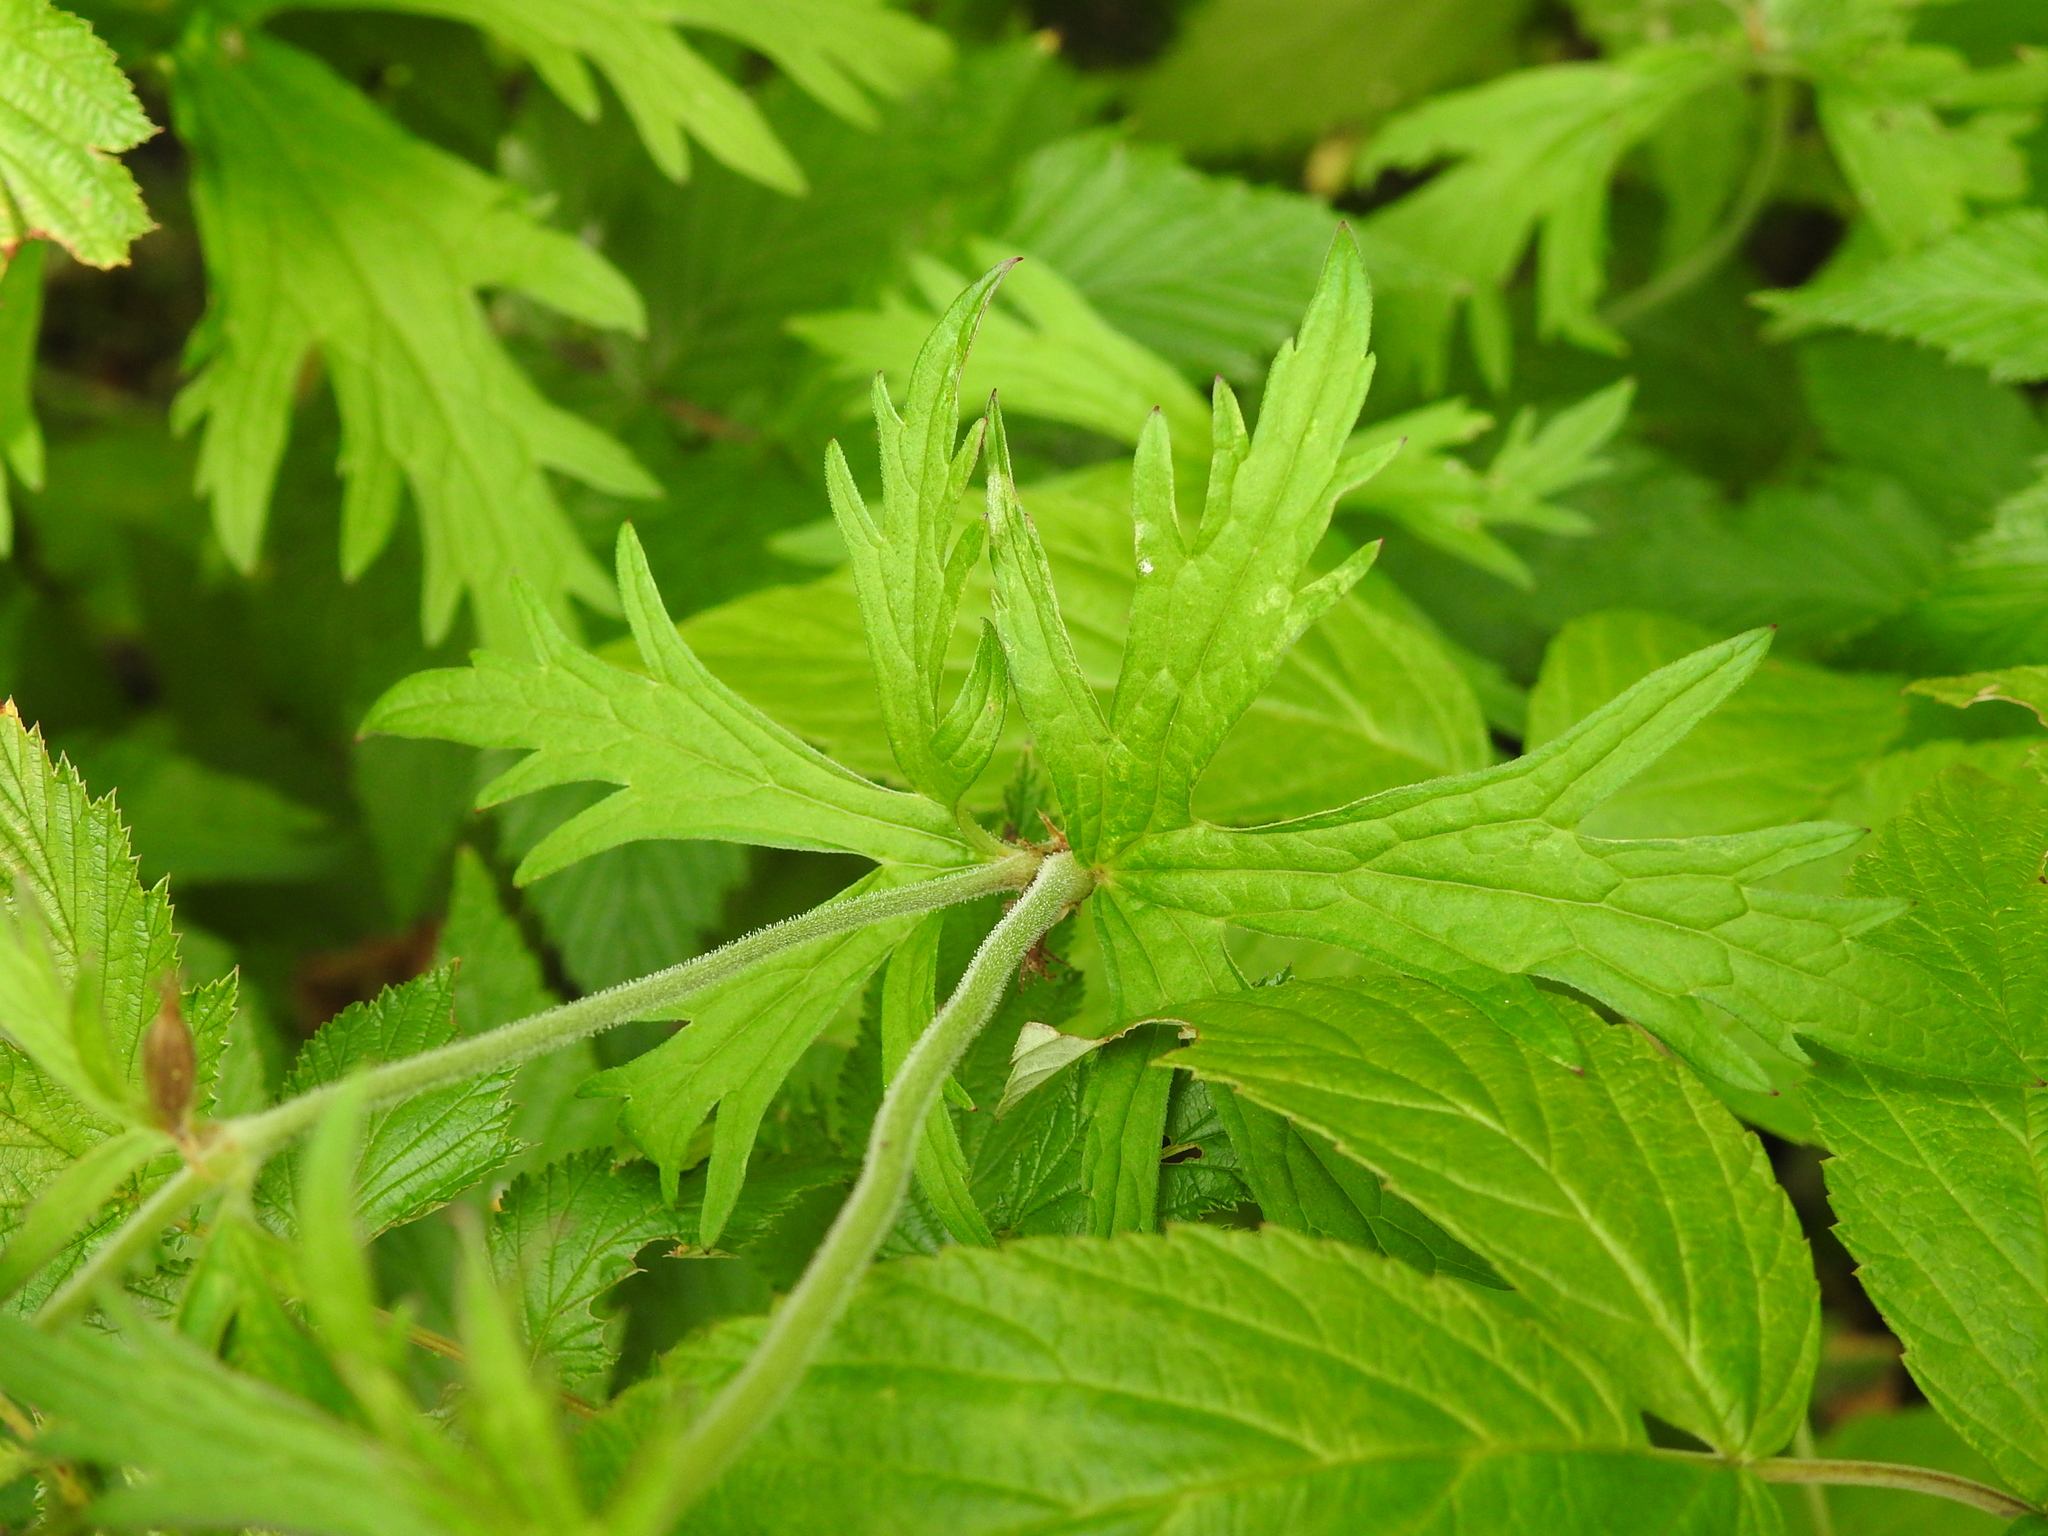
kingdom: Plantae
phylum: Tracheophyta
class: Magnoliopsida
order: Geraniales
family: Geraniaceae
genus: Geranium
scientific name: Geranium pratense
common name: Meadow crane's-bill
